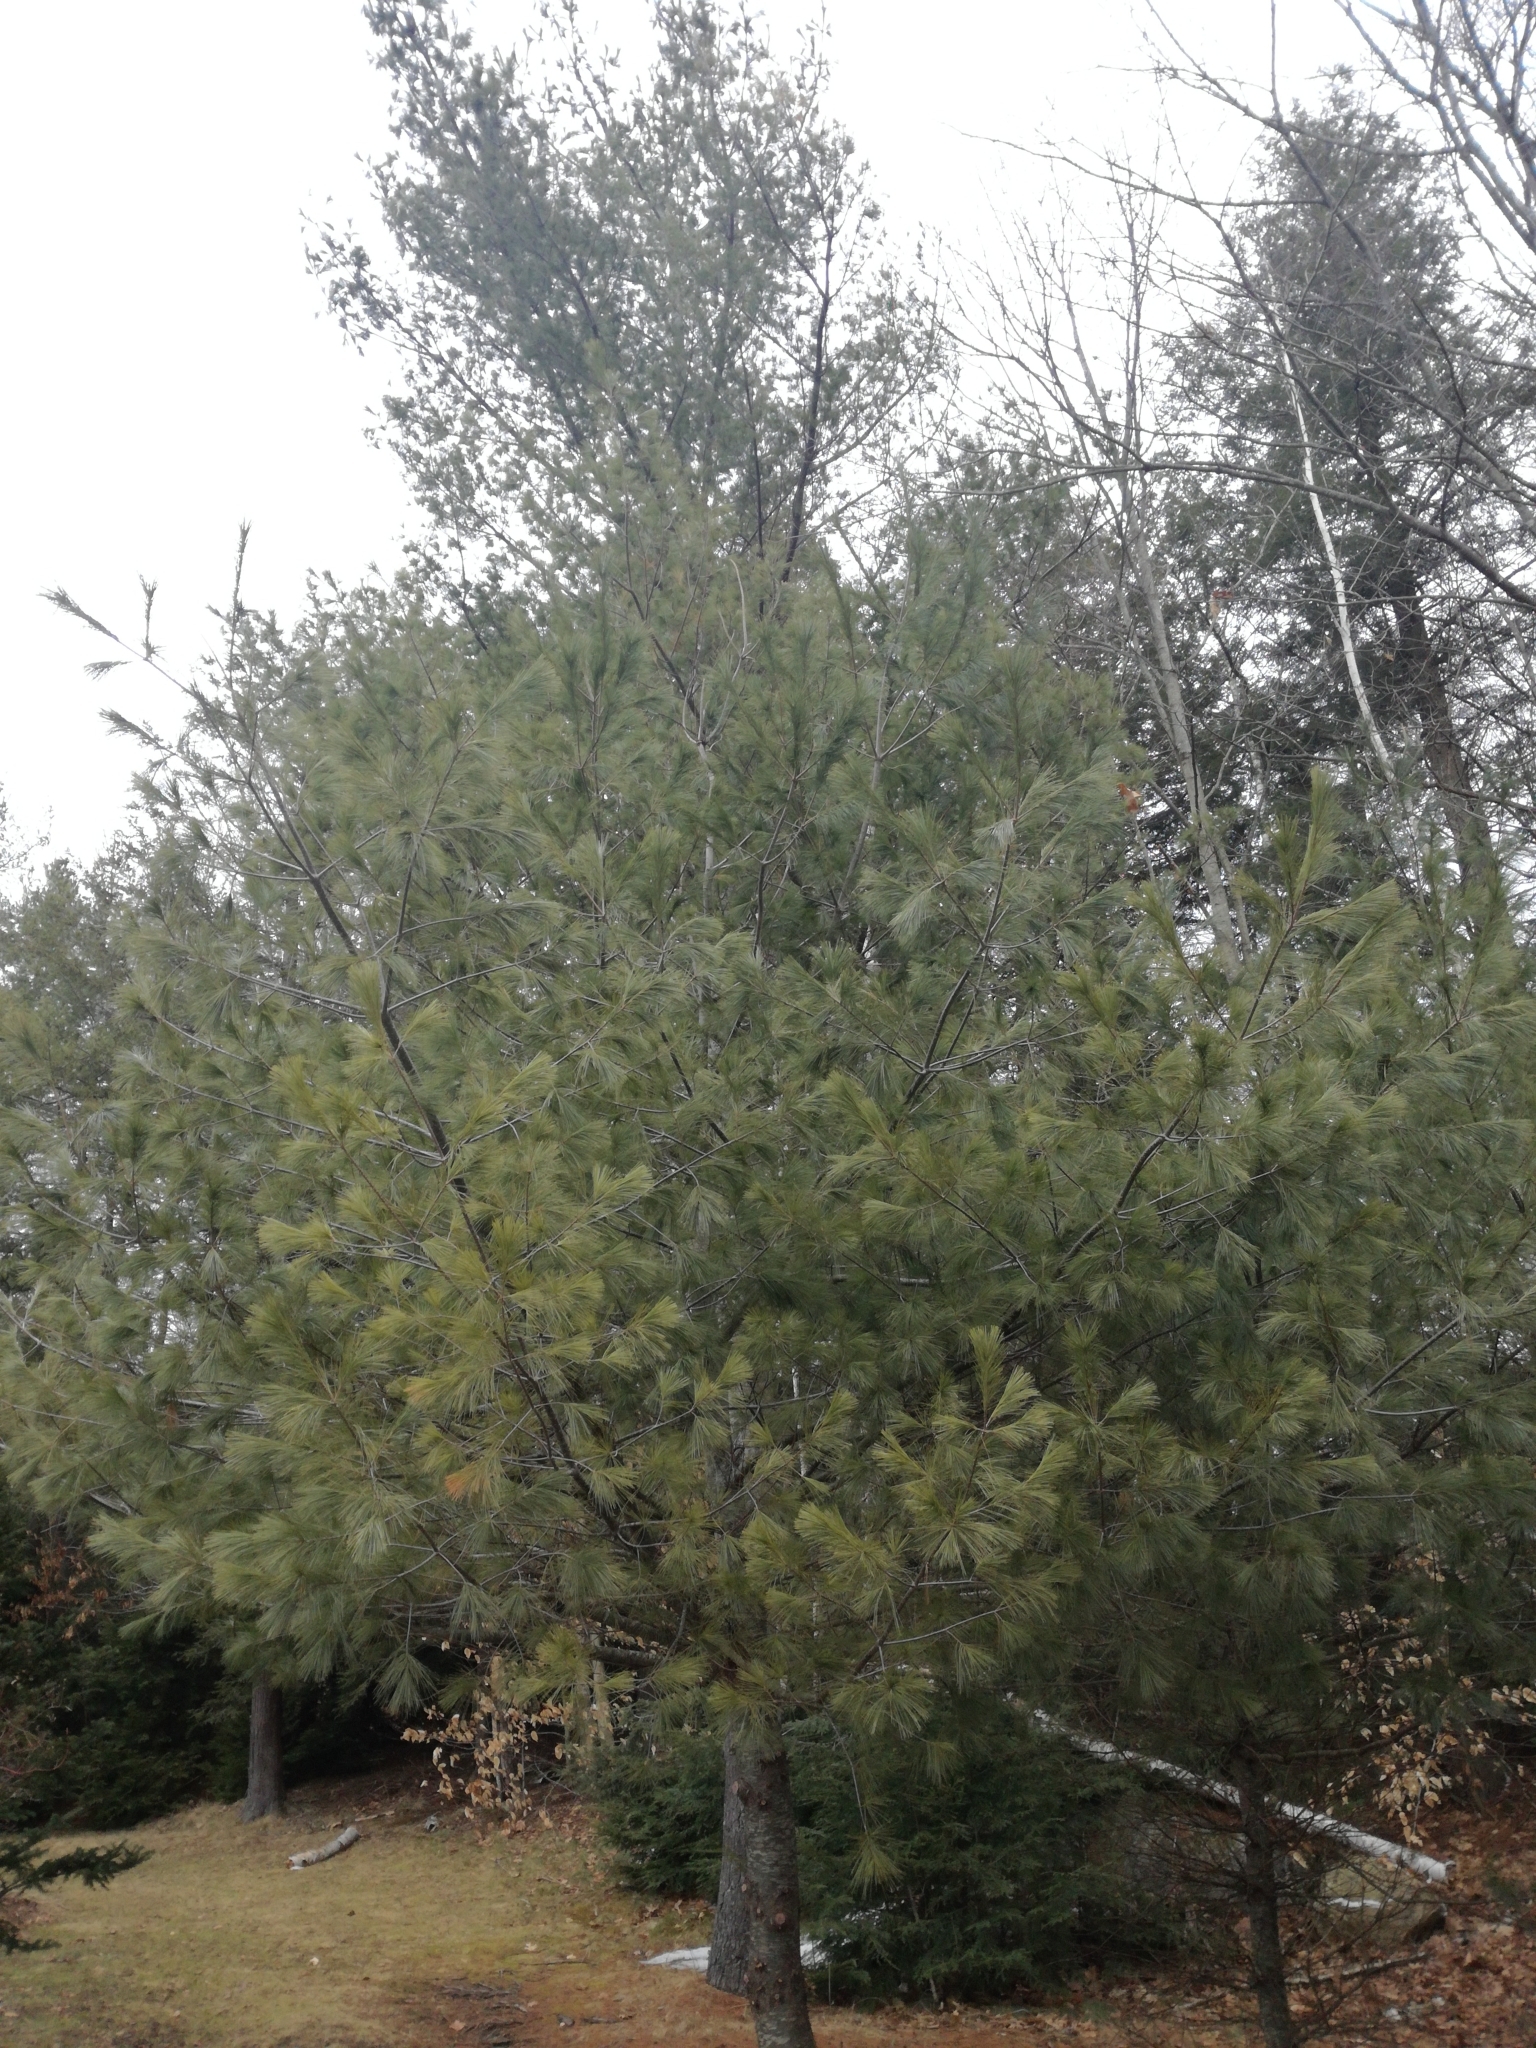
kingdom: Plantae
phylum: Tracheophyta
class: Pinopsida
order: Pinales
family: Pinaceae
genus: Pinus
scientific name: Pinus strobus
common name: Weymouth pine
